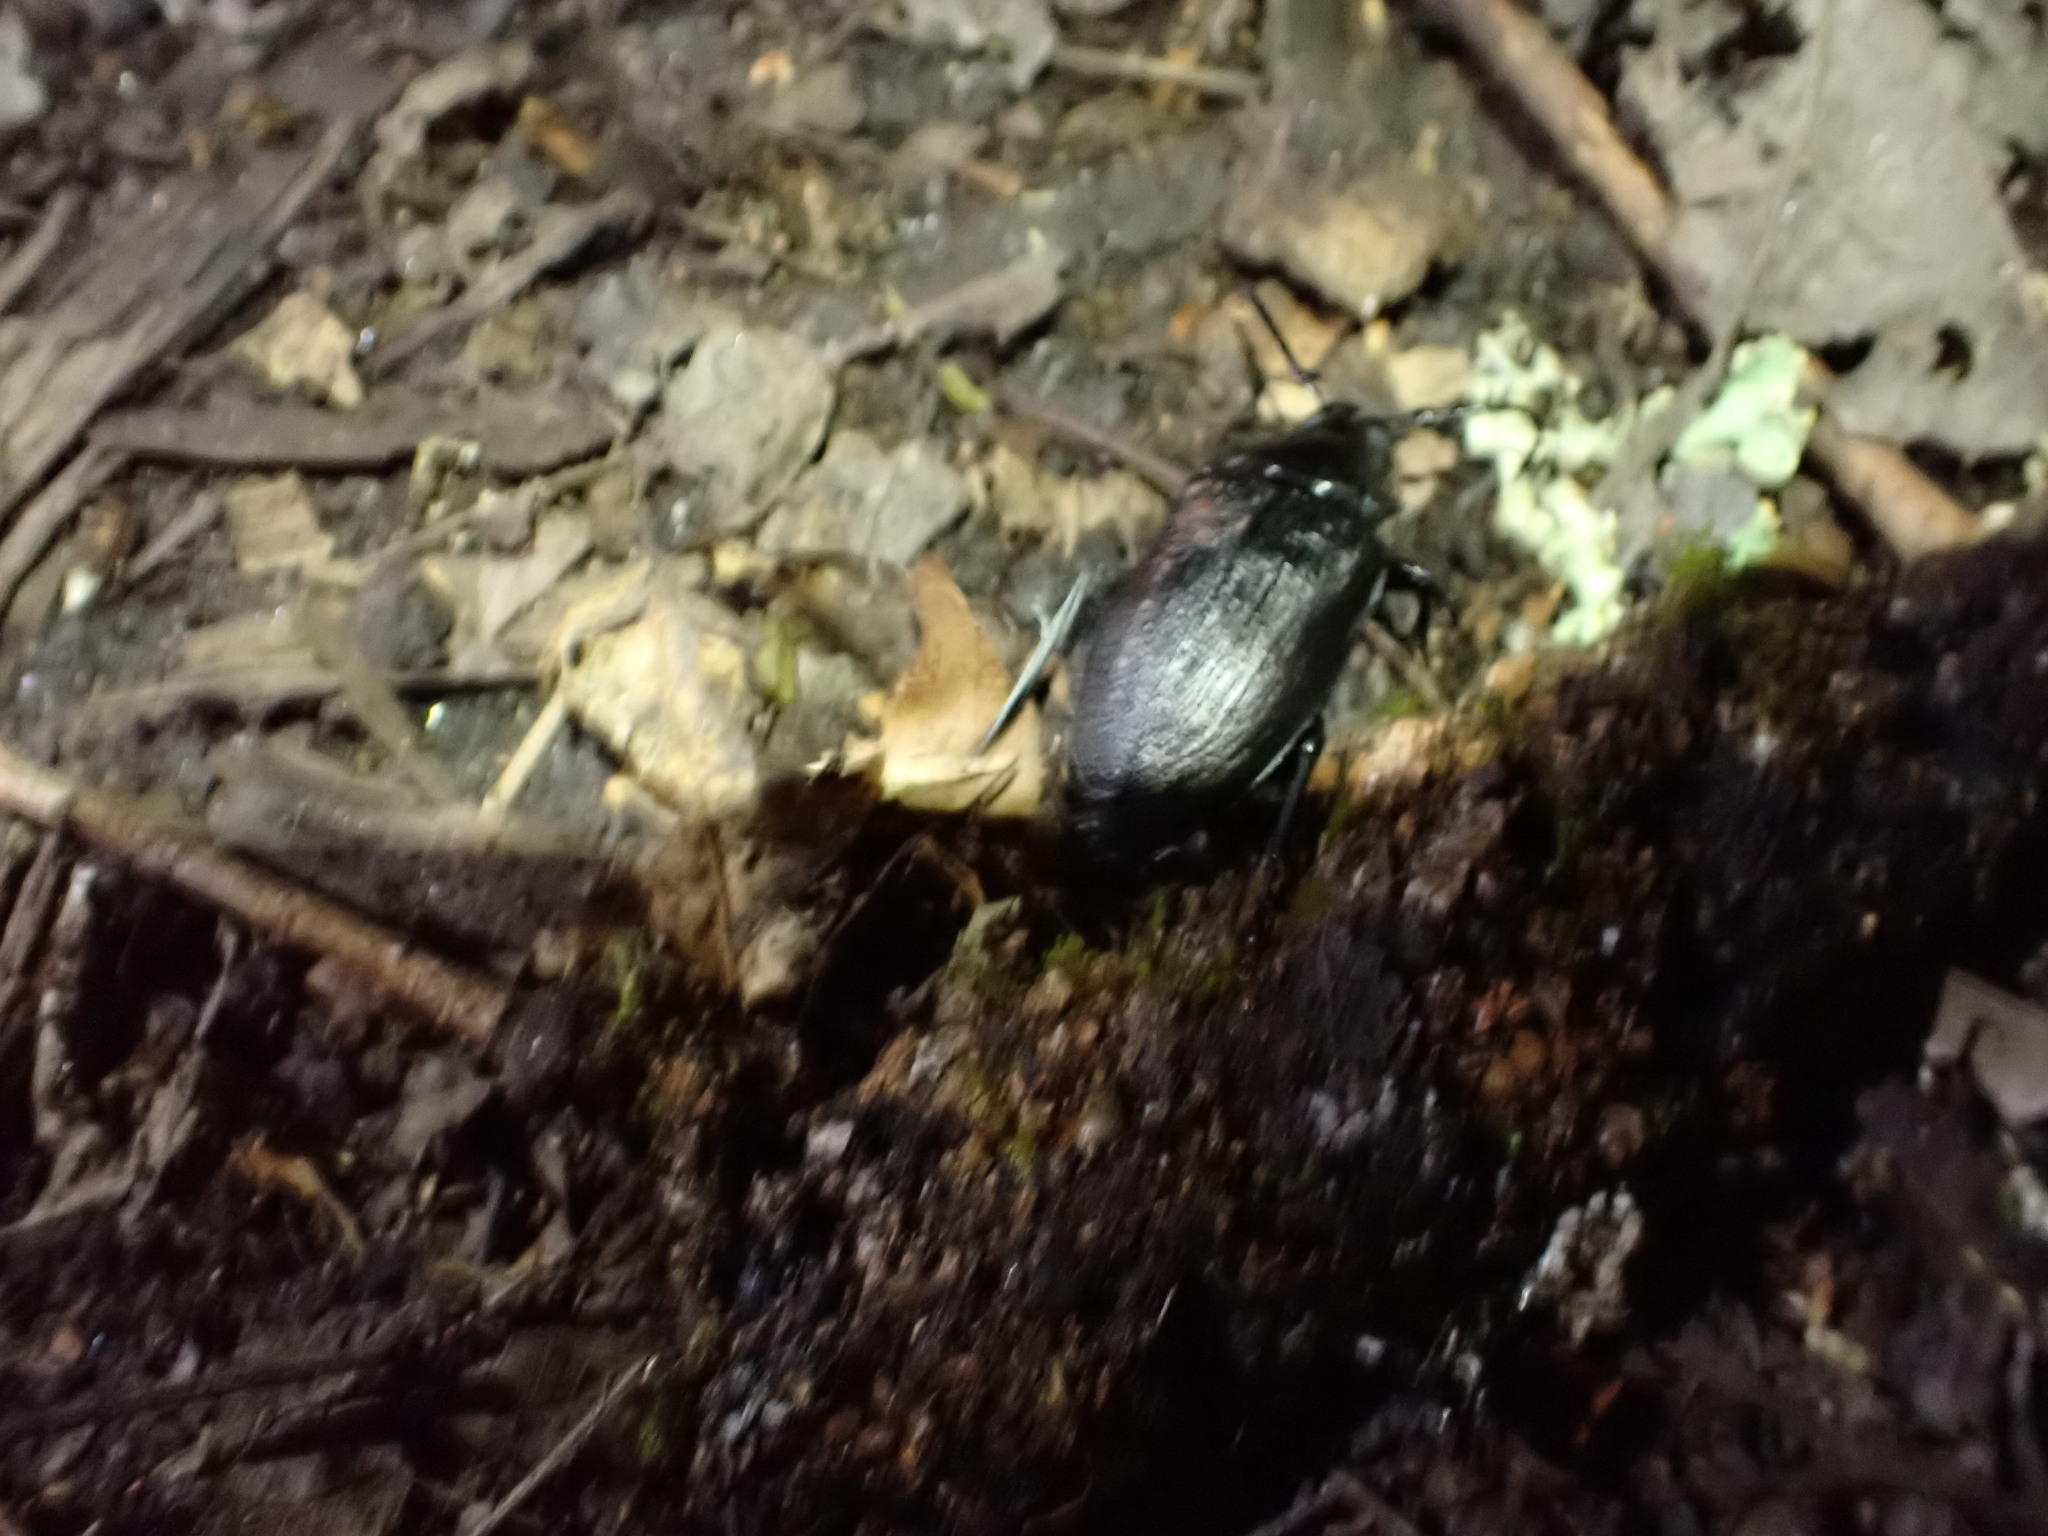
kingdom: Animalia
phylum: Arthropoda
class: Insecta
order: Coleoptera
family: Cerambycidae
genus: Prionus
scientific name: Prionus laticollis
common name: Broad necked prionus
